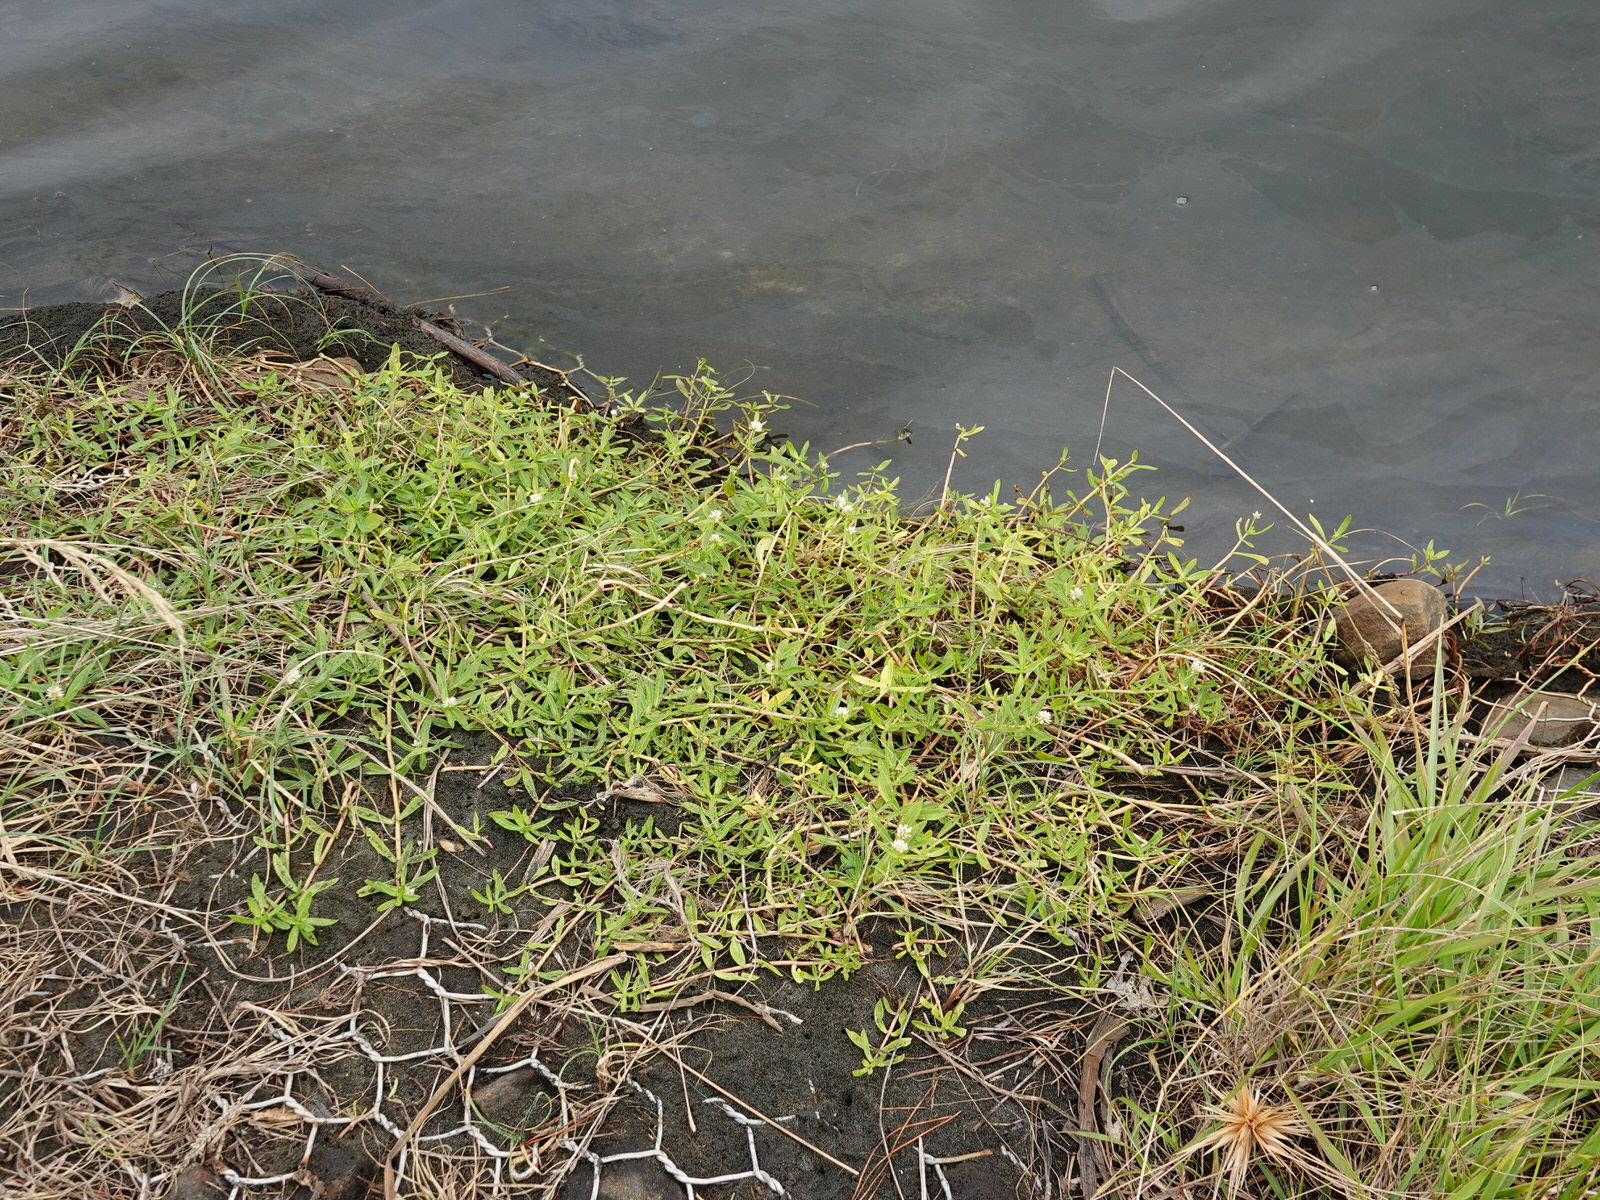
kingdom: Plantae
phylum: Tracheophyta
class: Magnoliopsida
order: Caryophyllales
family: Amaranthaceae
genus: Alternanthera
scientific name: Alternanthera philoxeroides
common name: Alligatorweed
